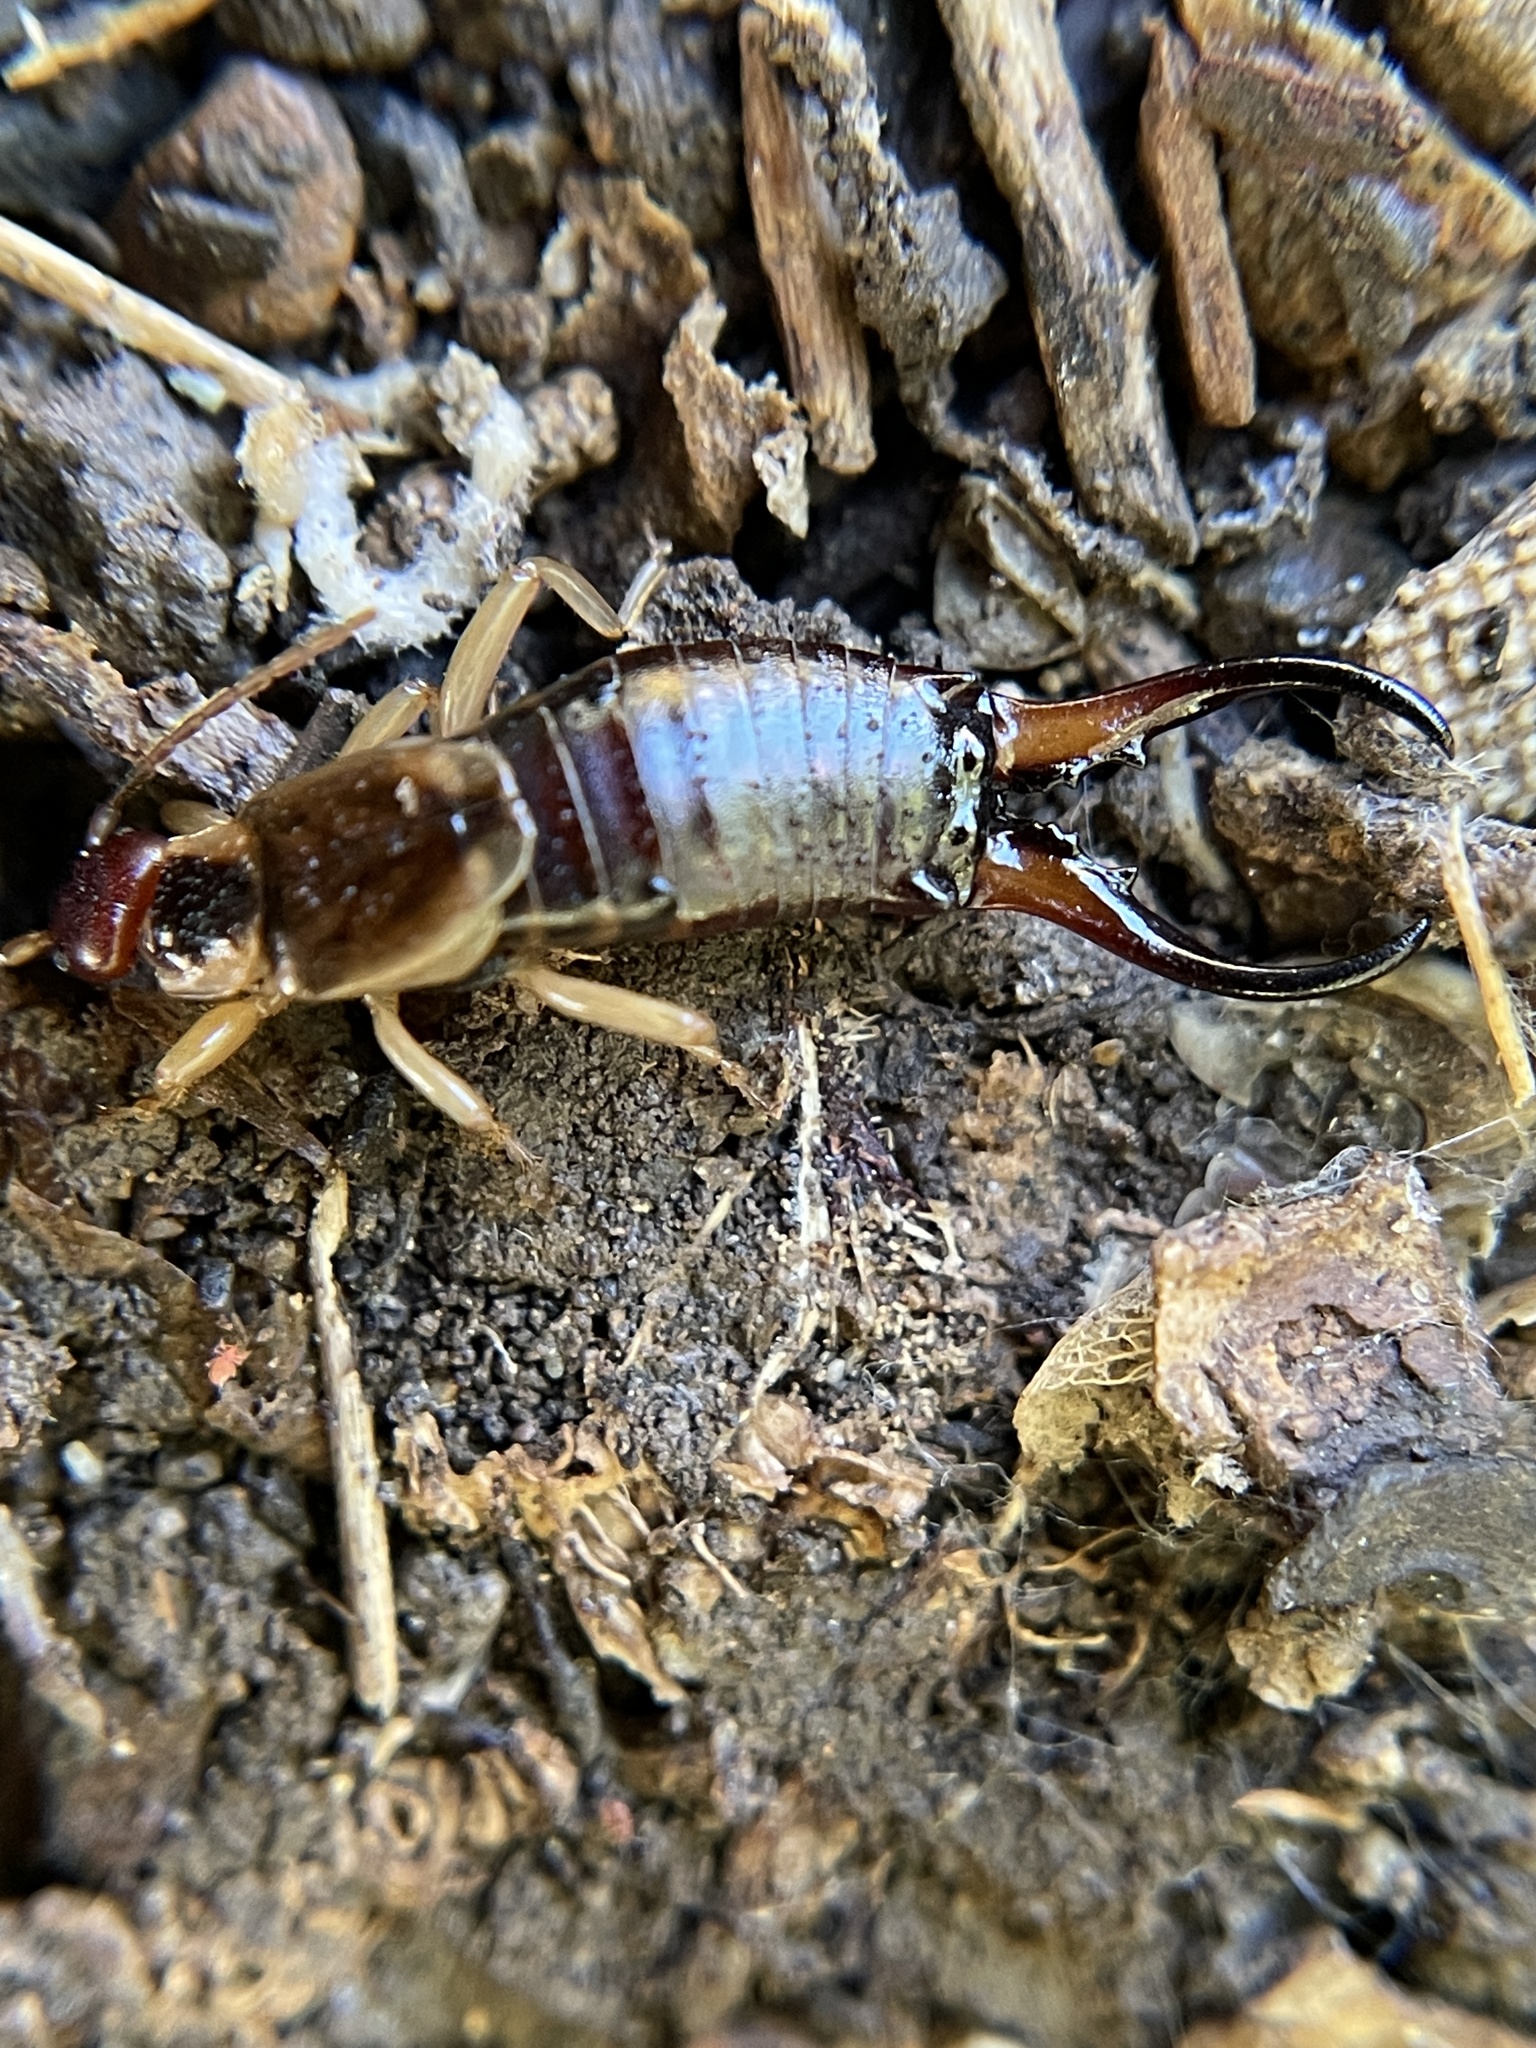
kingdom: Animalia
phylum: Arthropoda
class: Insecta
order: Dermaptera
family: Forficulidae
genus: Forficula
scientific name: Forficula
